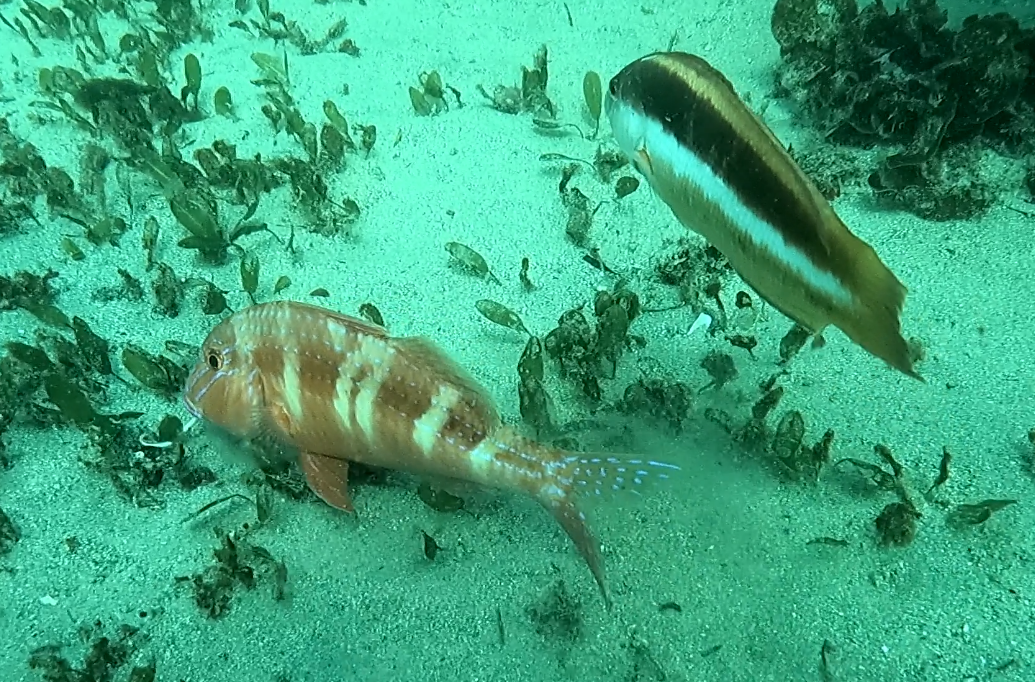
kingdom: Animalia
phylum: Chordata
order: Perciformes
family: Mullidae
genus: Upeneichthys
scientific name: Upeneichthys lineatus
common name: Red mullet
